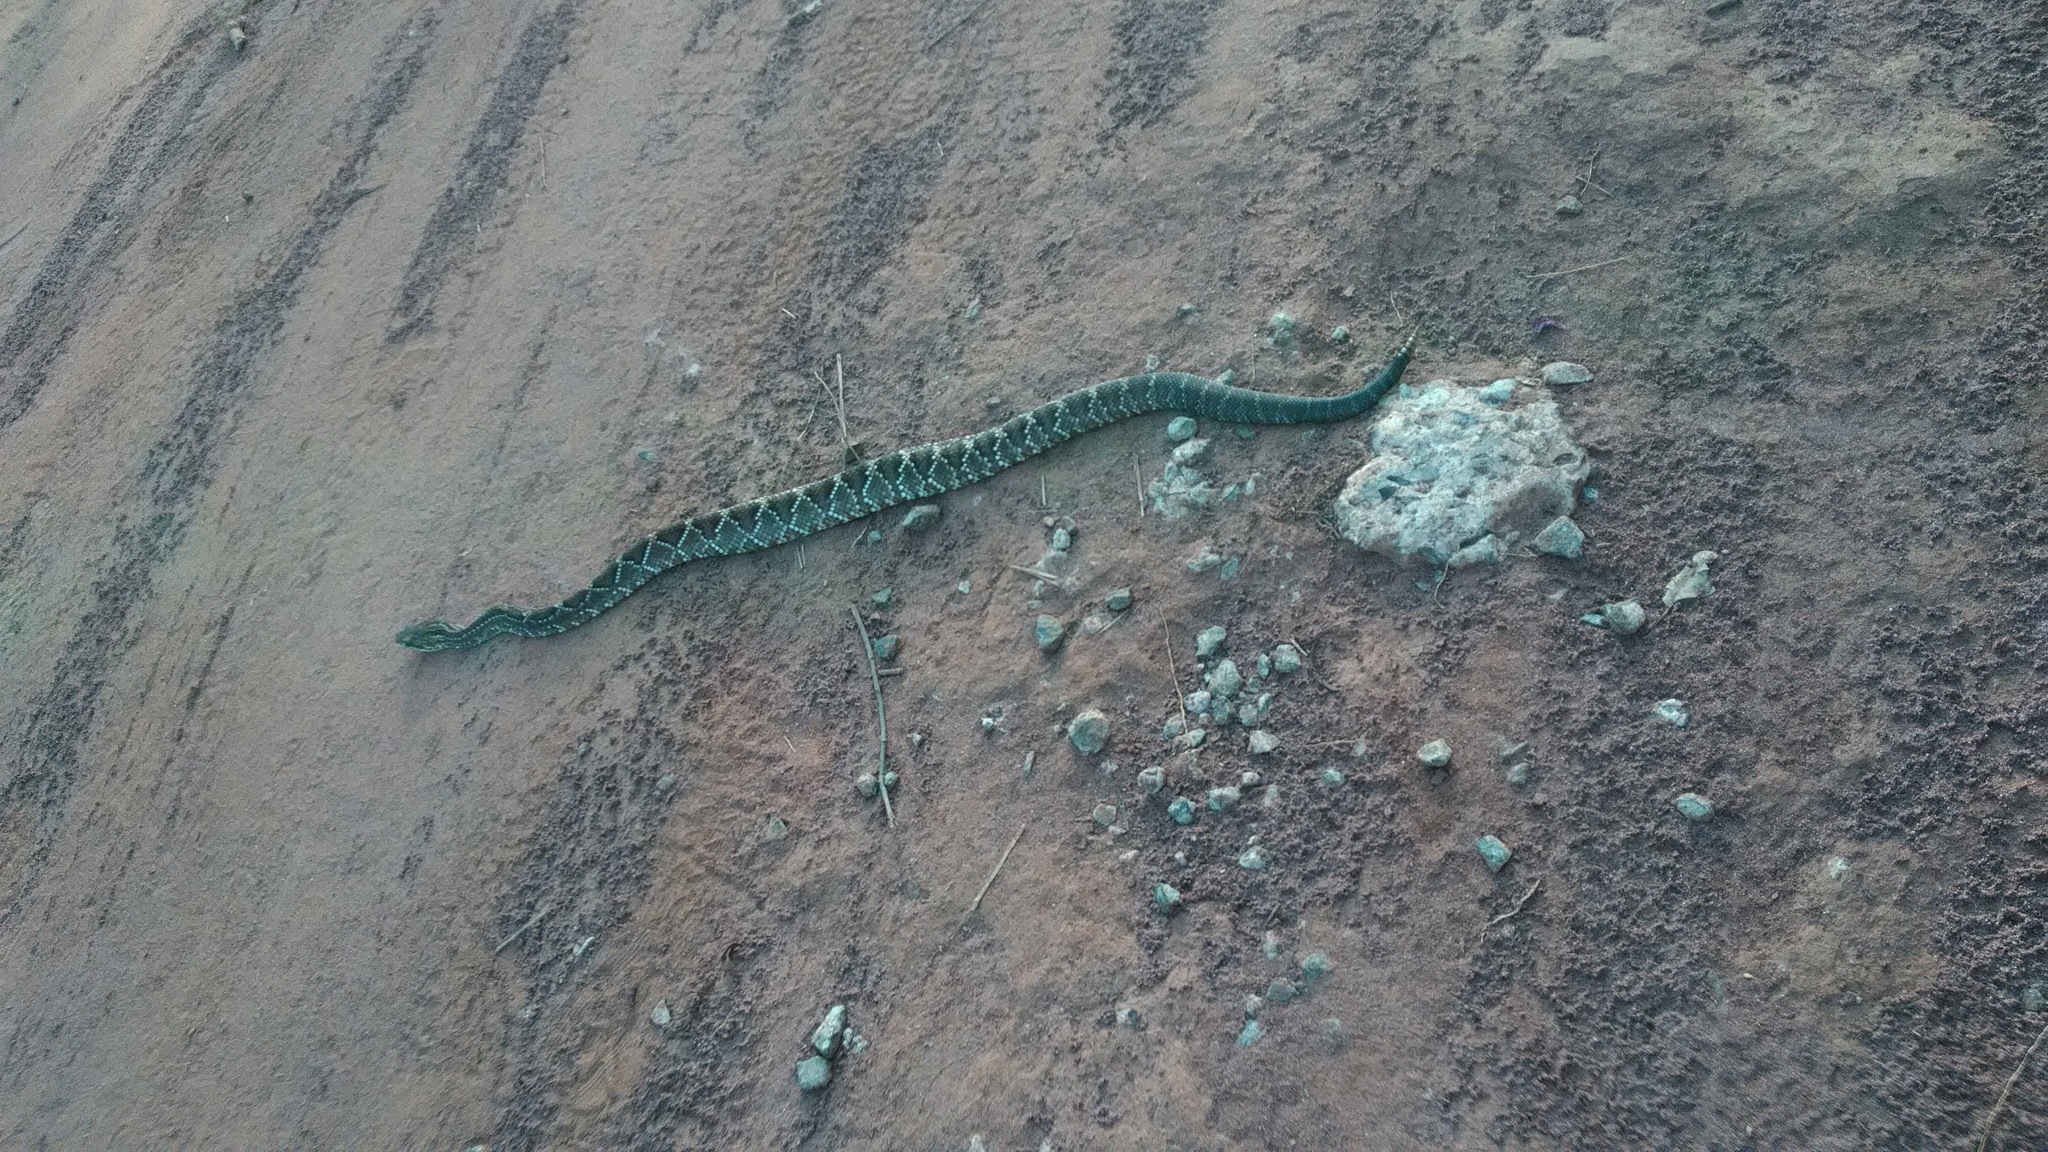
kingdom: Animalia
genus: Crotalus
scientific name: Crotalus durissus
